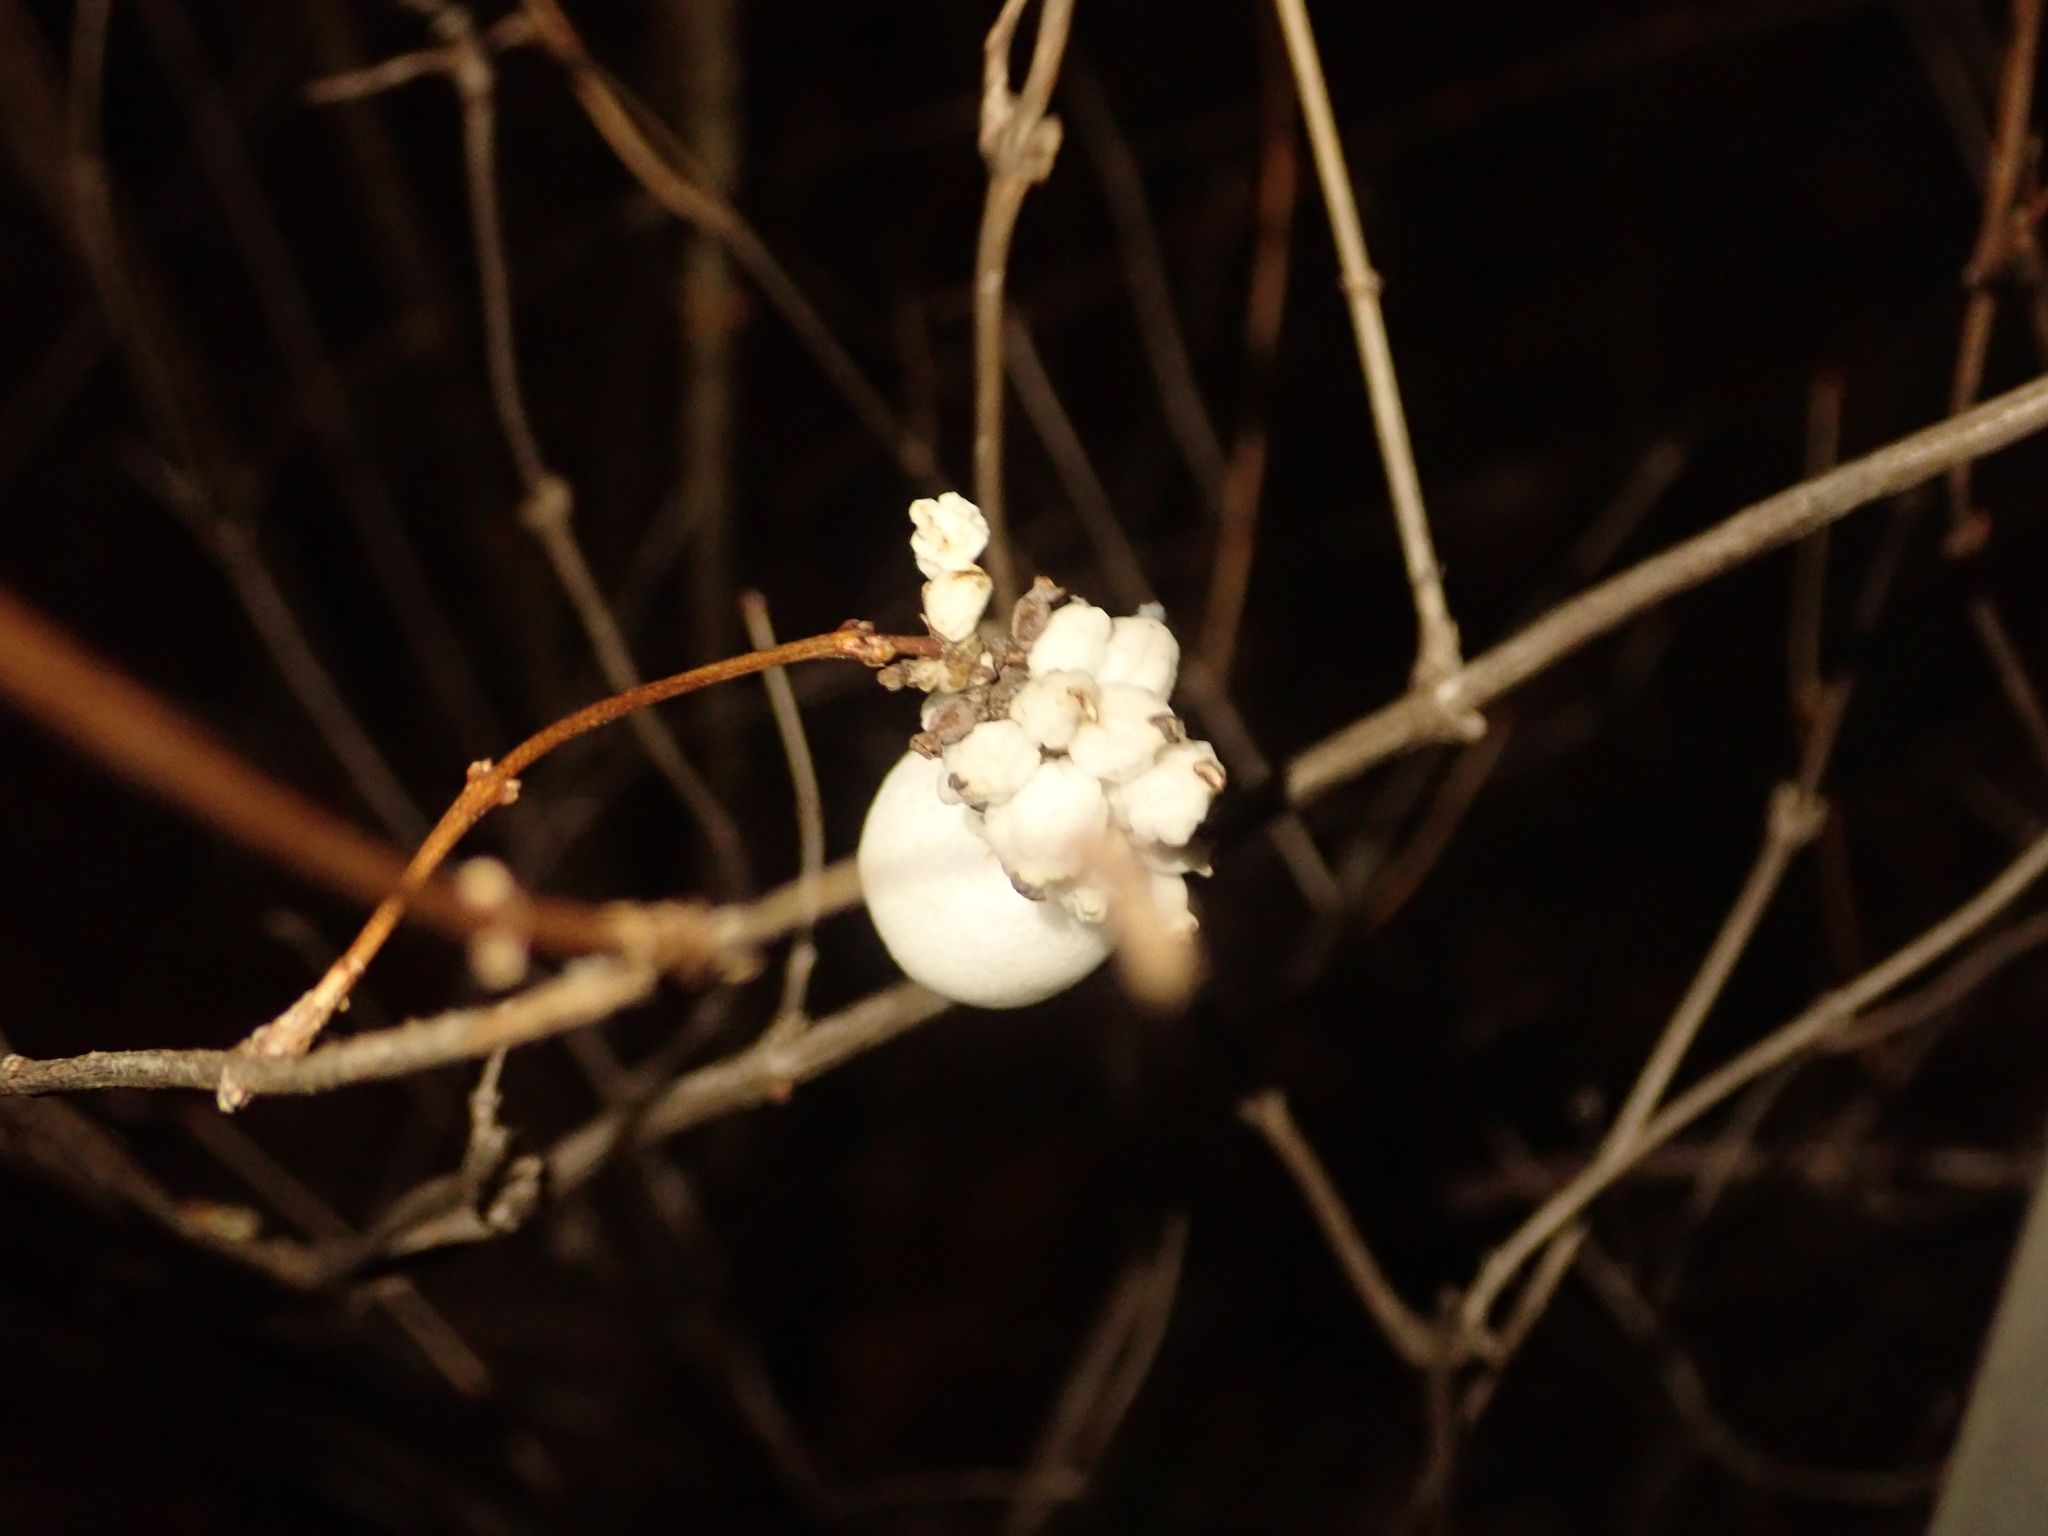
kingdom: Plantae
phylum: Tracheophyta
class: Magnoliopsida
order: Dipsacales
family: Caprifoliaceae
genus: Symphoricarpos
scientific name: Symphoricarpos albus
